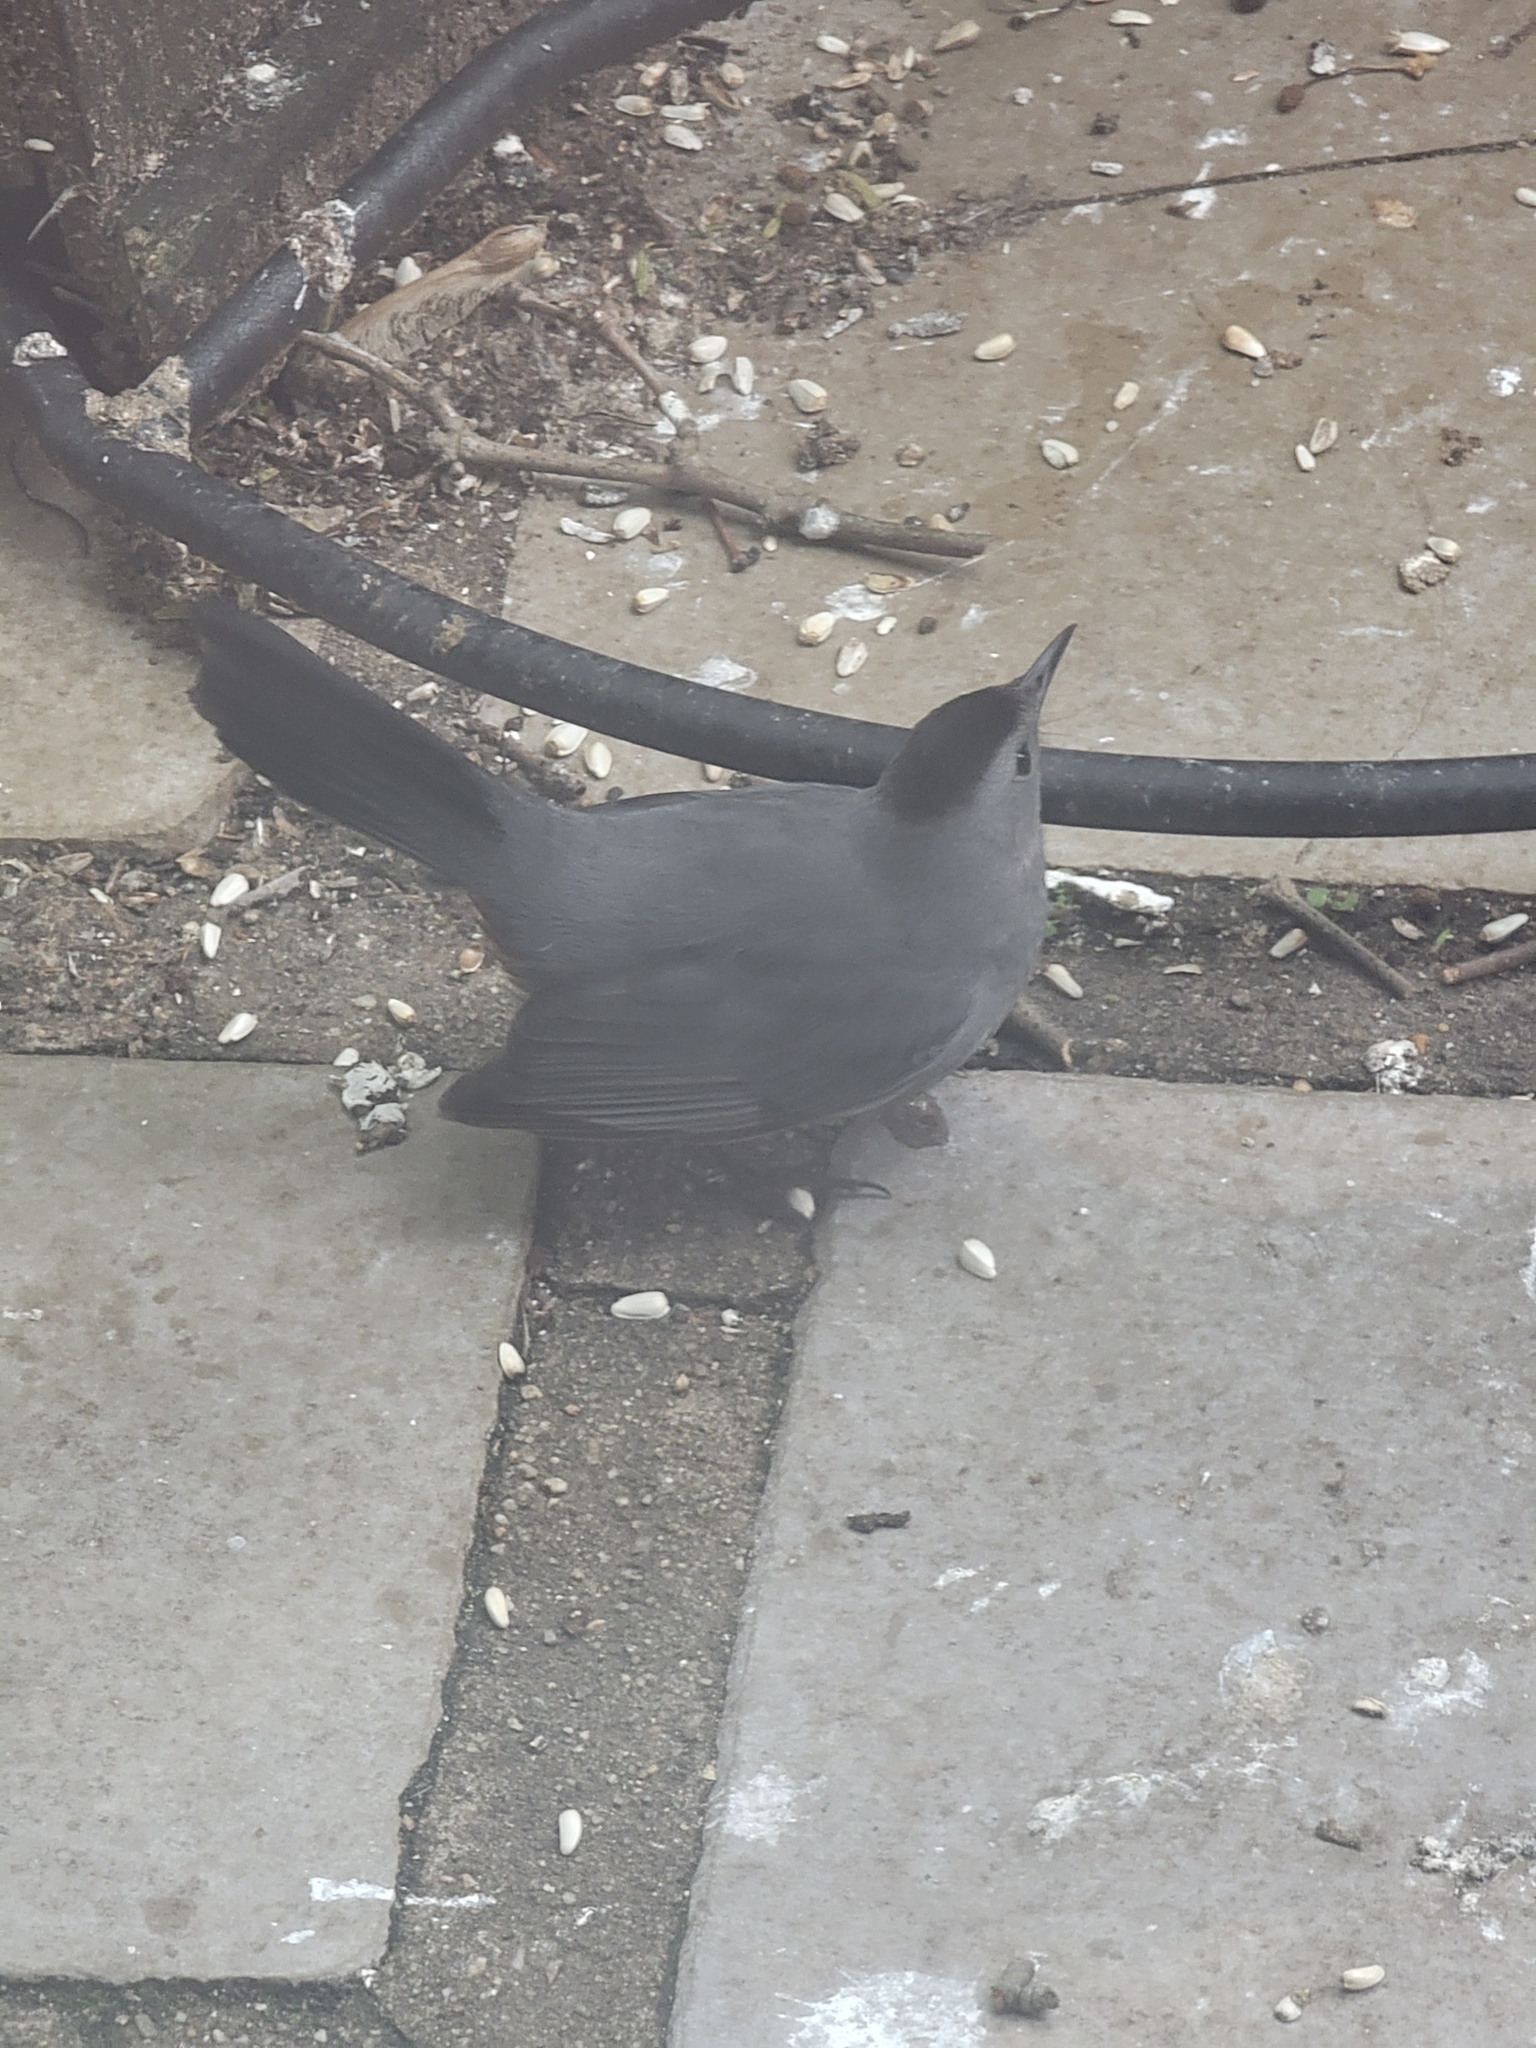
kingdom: Animalia
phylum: Chordata
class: Aves
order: Passeriformes
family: Mimidae
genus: Dumetella
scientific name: Dumetella carolinensis
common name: Gray catbird
